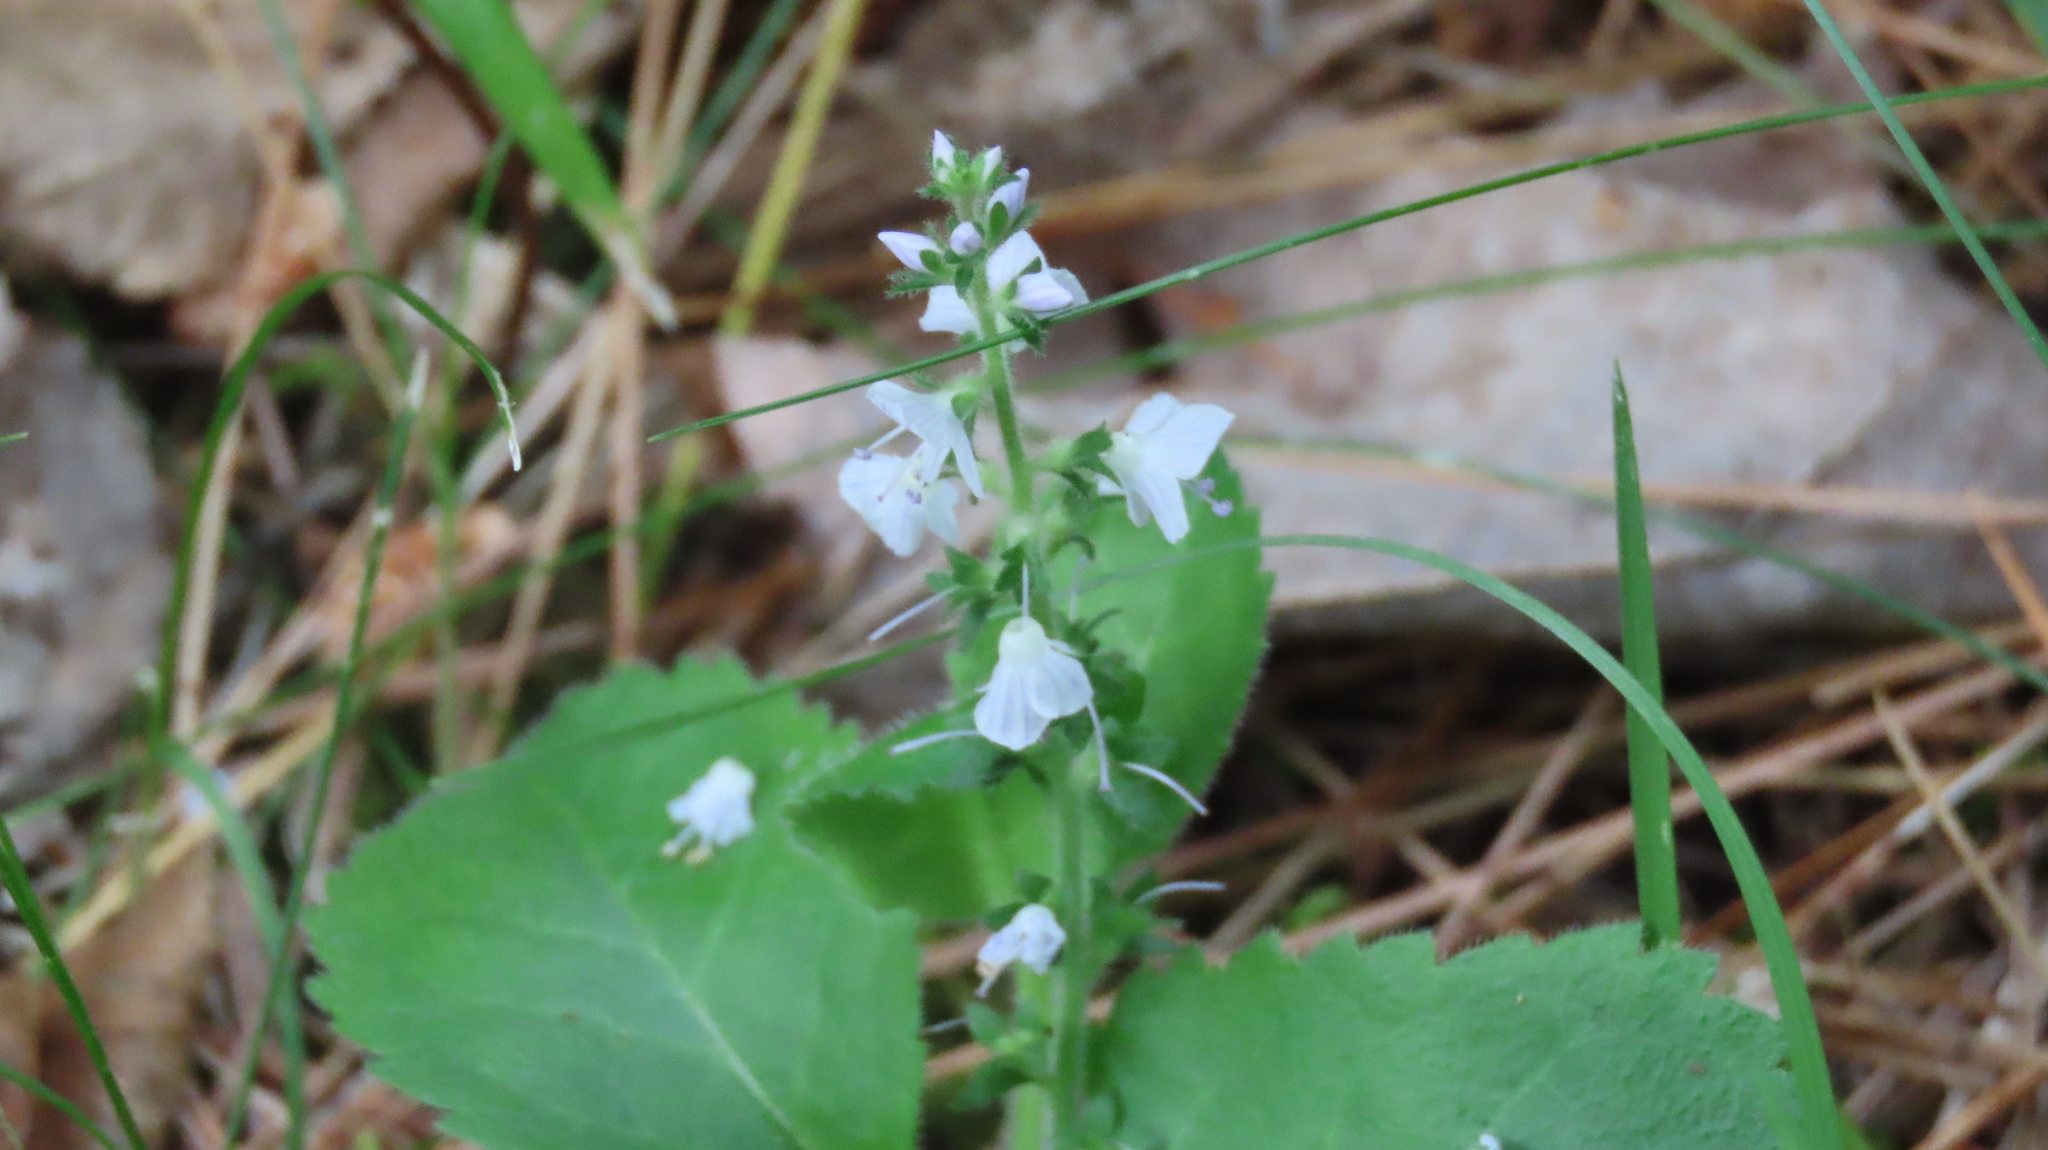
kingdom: Plantae
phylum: Tracheophyta
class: Magnoliopsida
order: Lamiales
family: Plantaginaceae
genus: Veronica
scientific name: Veronica officinalis
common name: Common speedwell
